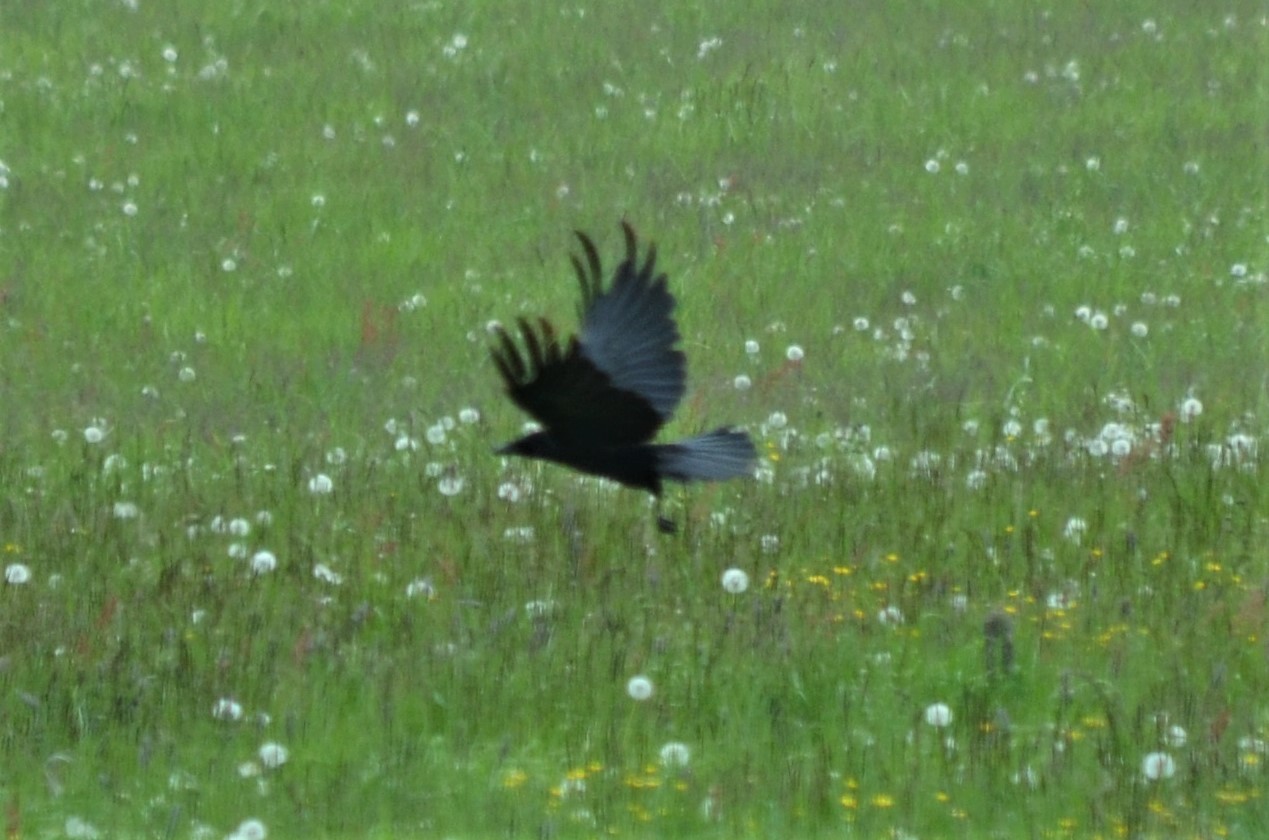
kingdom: Animalia
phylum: Chordata
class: Aves
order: Passeriformes
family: Corvidae
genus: Corvus
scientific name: Corvus cornix
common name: Hooded crow
